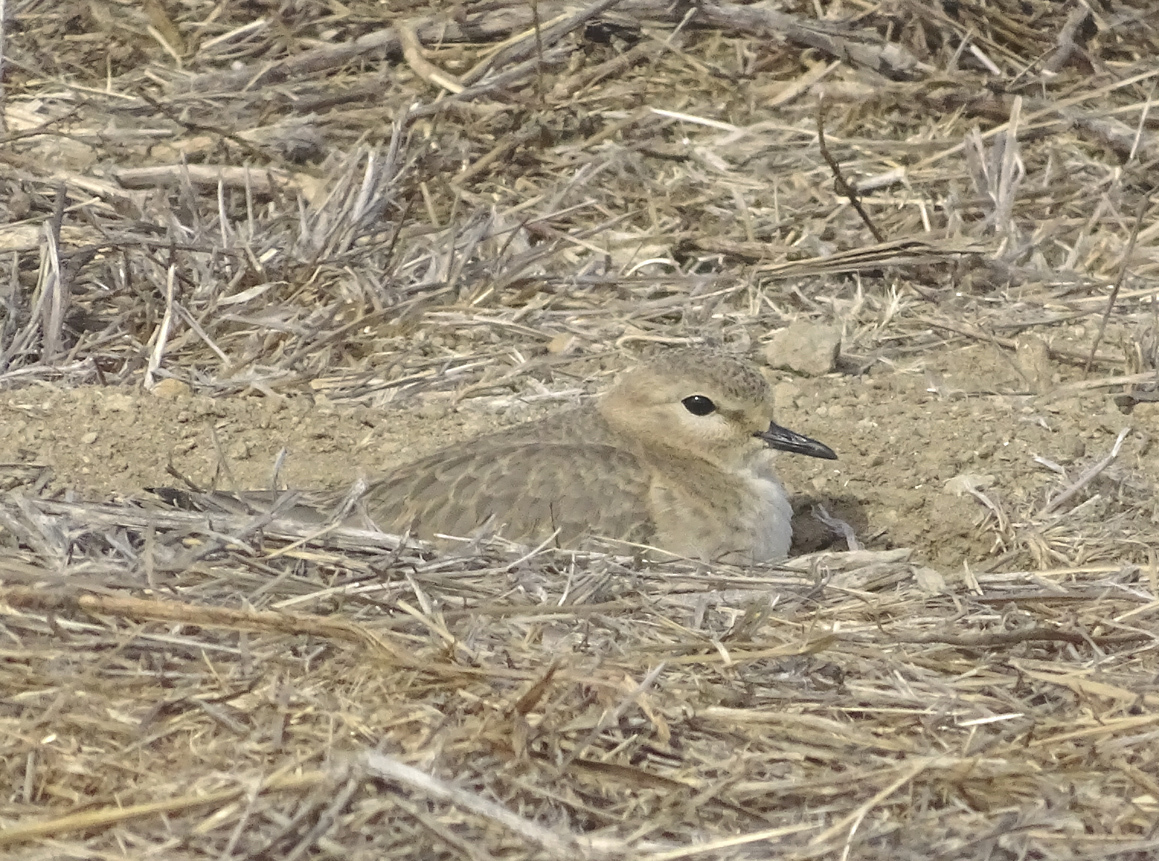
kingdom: Animalia
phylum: Chordata
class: Aves
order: Charadriiformes
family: Charadriidae
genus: Anarhynchus
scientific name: Anarhynchus
